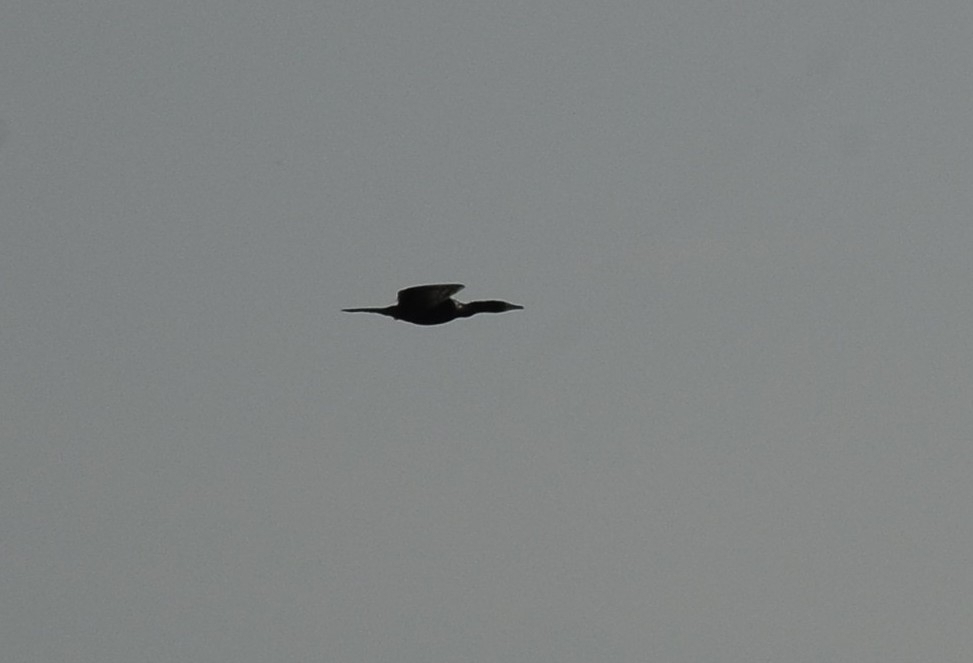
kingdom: Animalia
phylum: Chordata
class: Aves
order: Suliformes
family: Phalacrocoracidae
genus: Microcarbo
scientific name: Microcarbo niger
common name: Little cormorant
